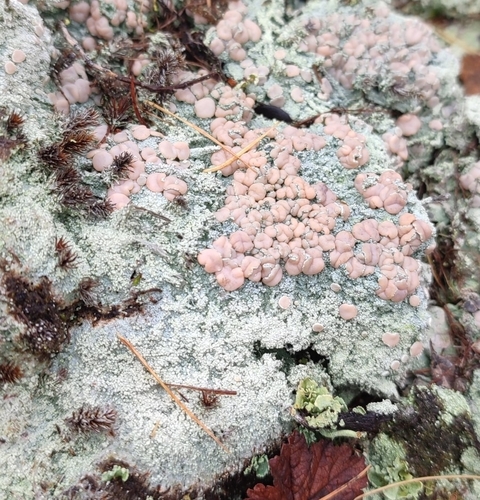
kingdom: Fungi
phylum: Ascomycota
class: Lecanoromycetes
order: Pertusariales
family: Icmadophilaceae
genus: Icmadophila
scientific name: Icmadophila ericetorum
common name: Candy lichen
